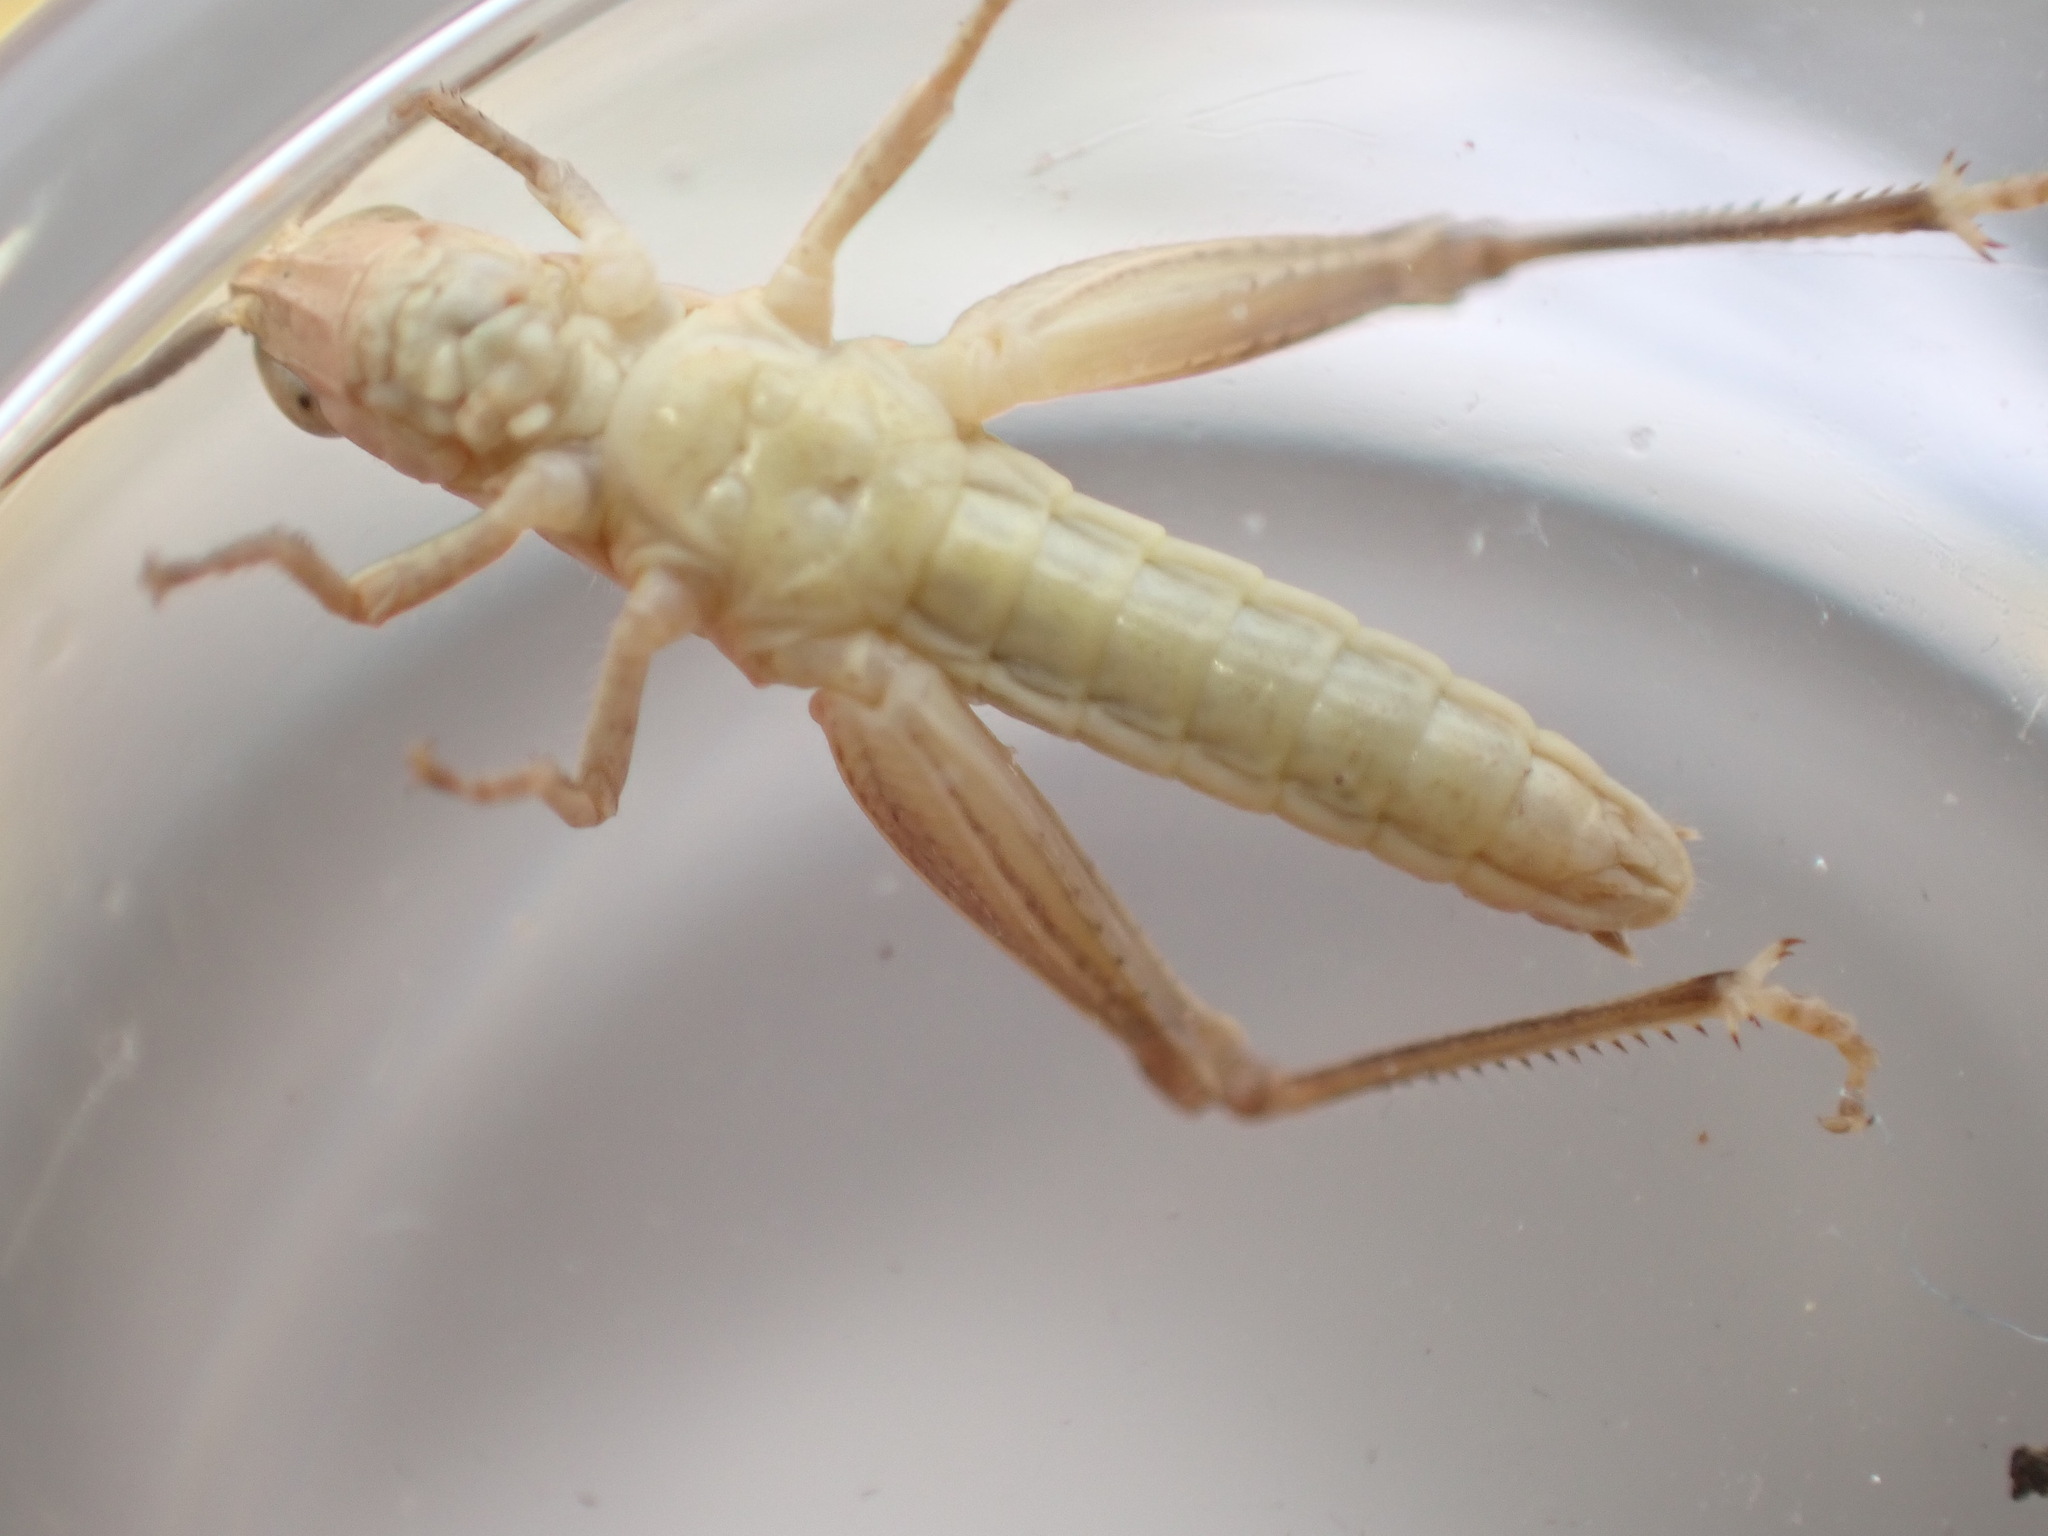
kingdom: Animalia
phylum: Arthropoda
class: Insecta
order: Orthoptera
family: Acrididae
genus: Chorthippus
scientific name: Chorthippus brunneus
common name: Field grasshopper
